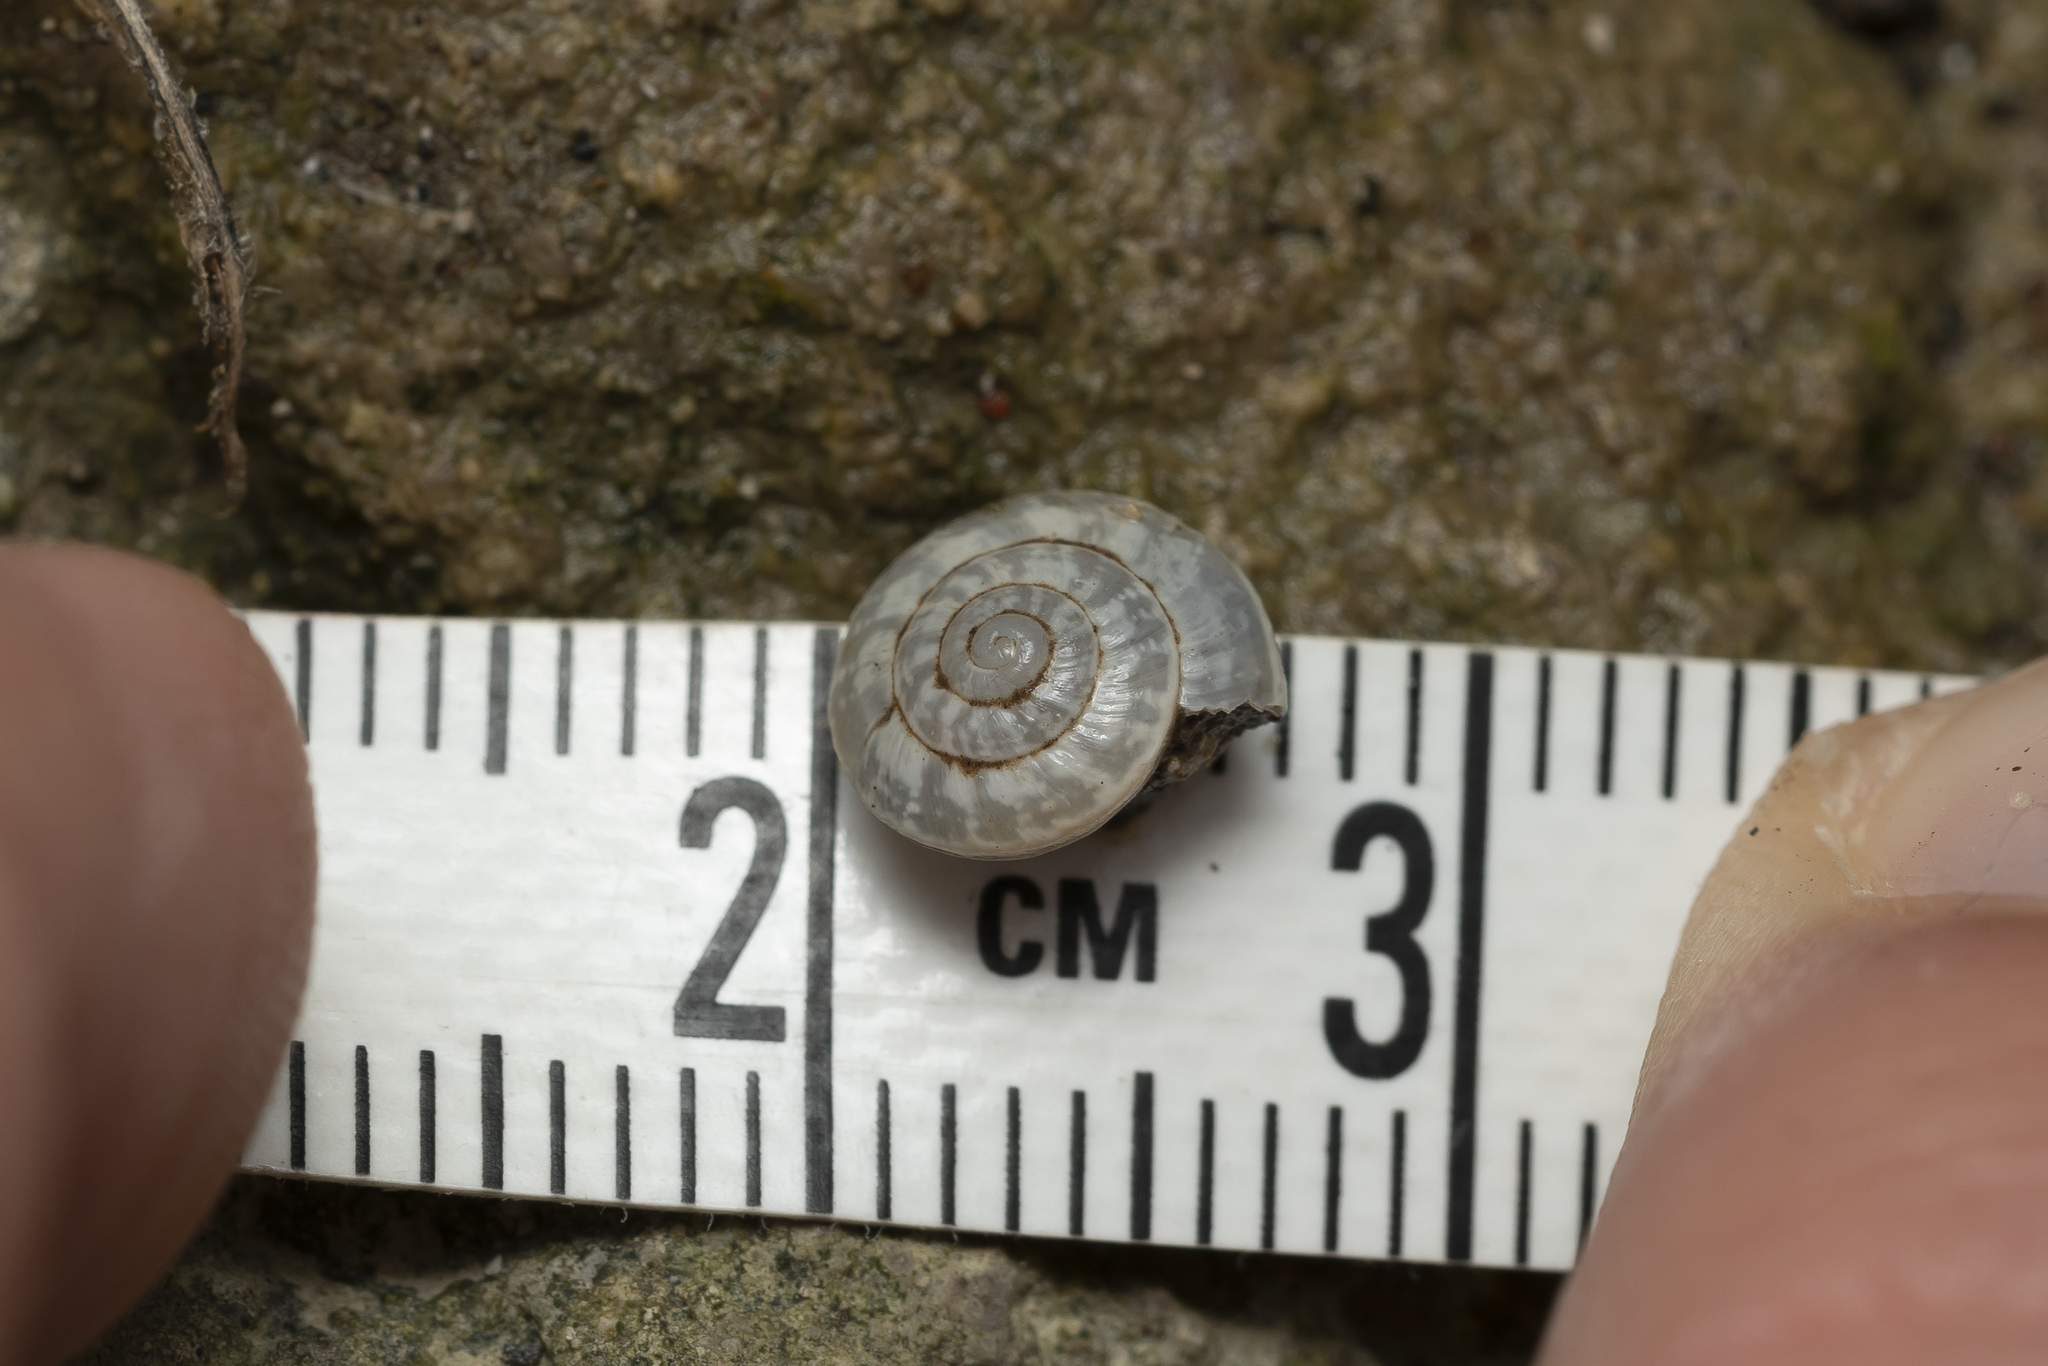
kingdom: Animalia
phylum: Mollusca
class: Gastropoda
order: Stylommatophora
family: Geomitridae
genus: Cernuella
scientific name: Cernuella virgata
